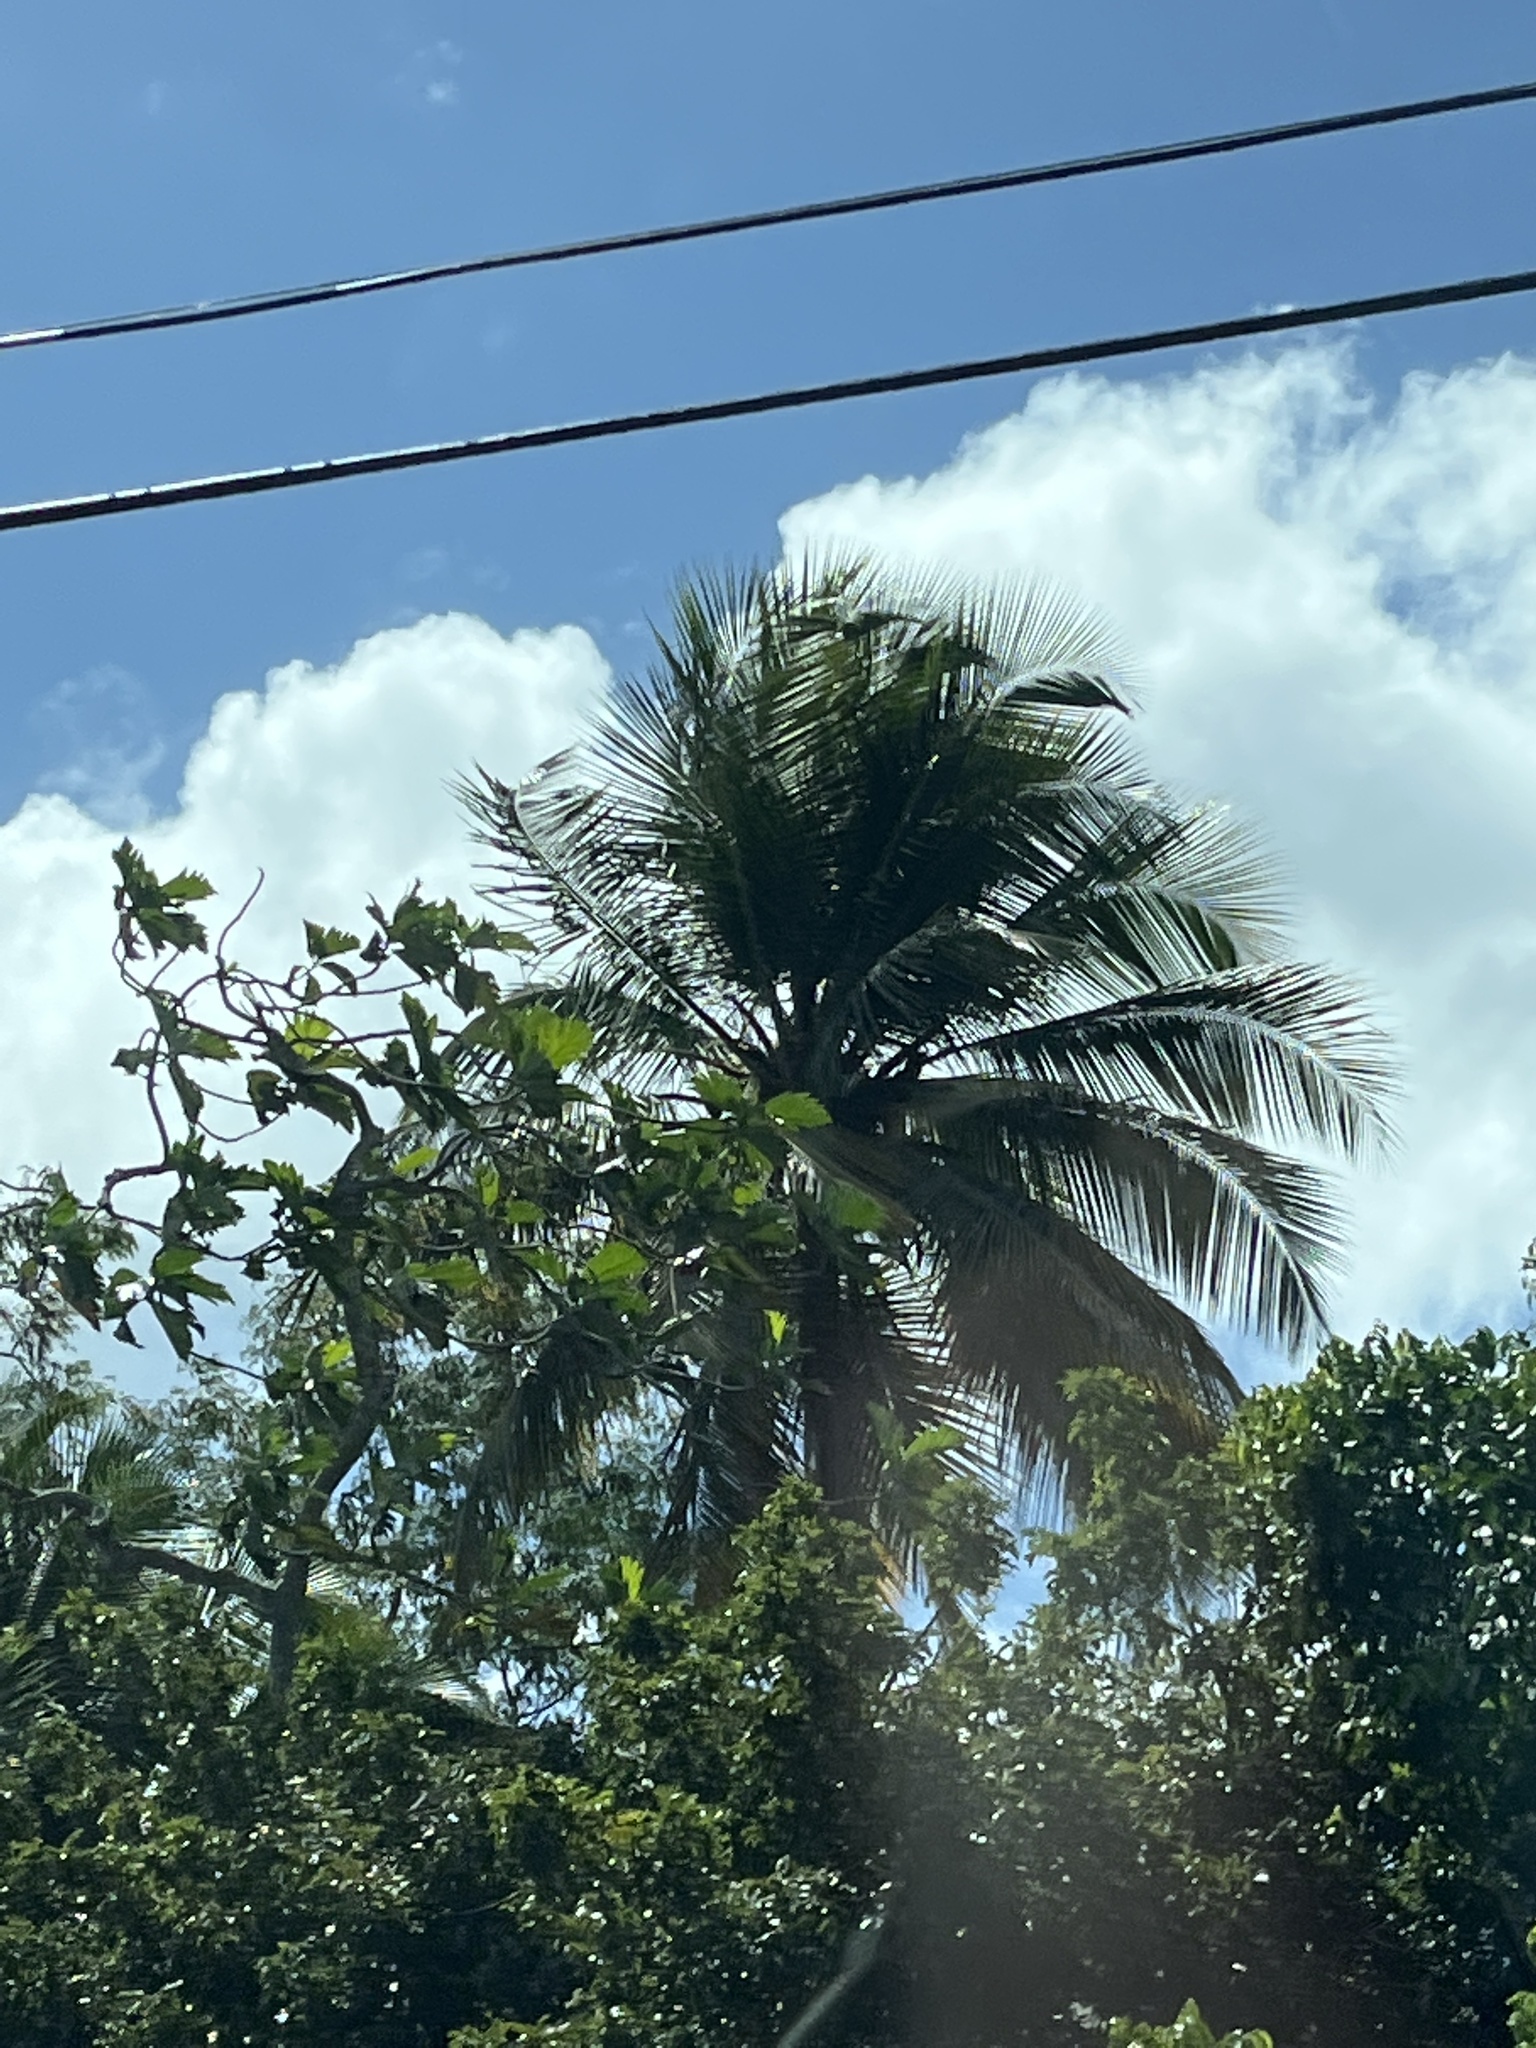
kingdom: Plantae
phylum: Tracheophyta
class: Liliopsida
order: Arecales
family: Arecaceae
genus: Cocos
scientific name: Cocos nucifera
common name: Coconut palm
